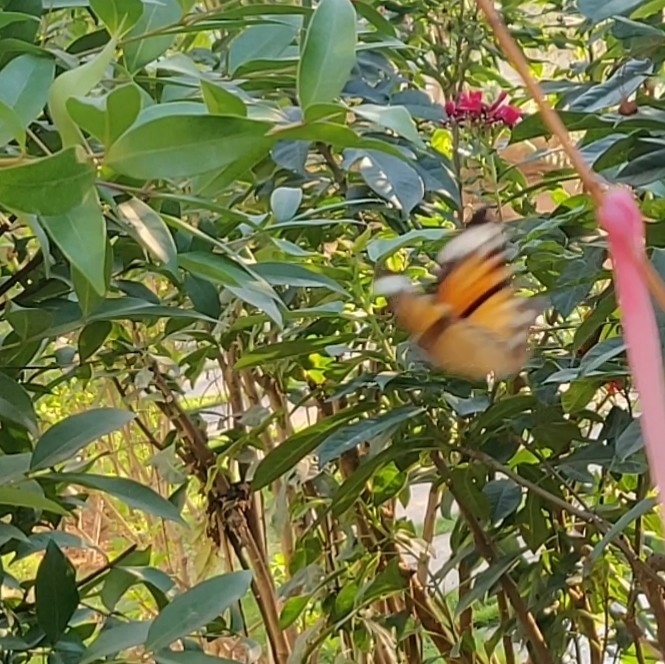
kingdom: Animalia
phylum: Arthropoda
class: Insecta
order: Lepidoptera
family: Nymphalidae
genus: Elymnias
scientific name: Elymnias hypermnestra
